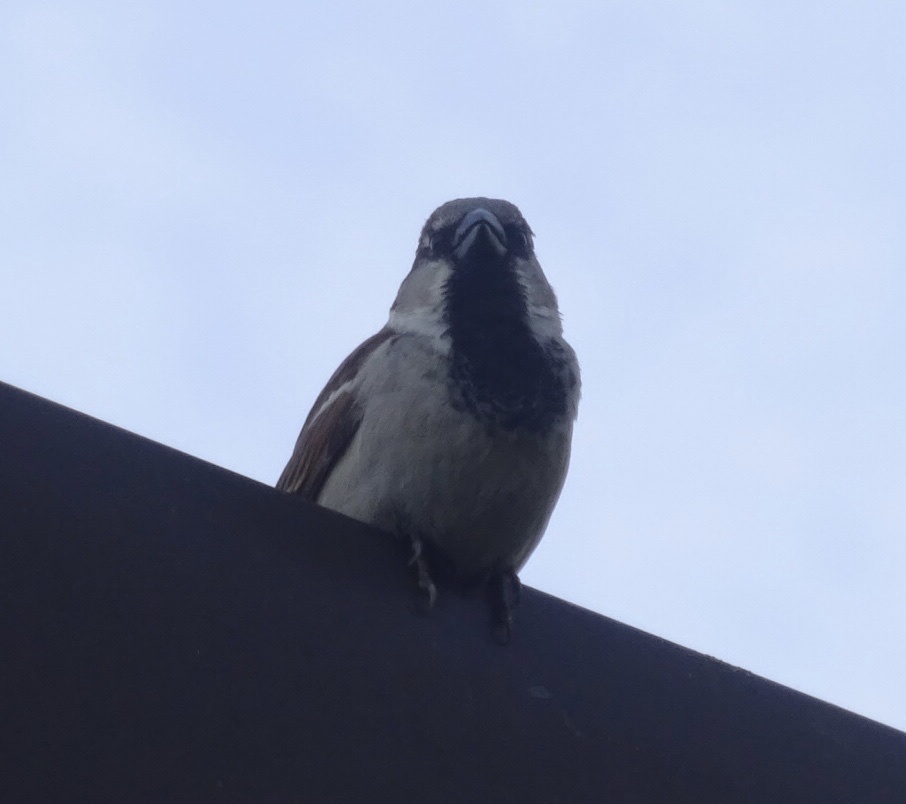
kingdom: Animalia
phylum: Chordata
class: Aves
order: Passeriformes
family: Passeridae
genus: Passer
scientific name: Passer domesticus
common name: House sparrow
